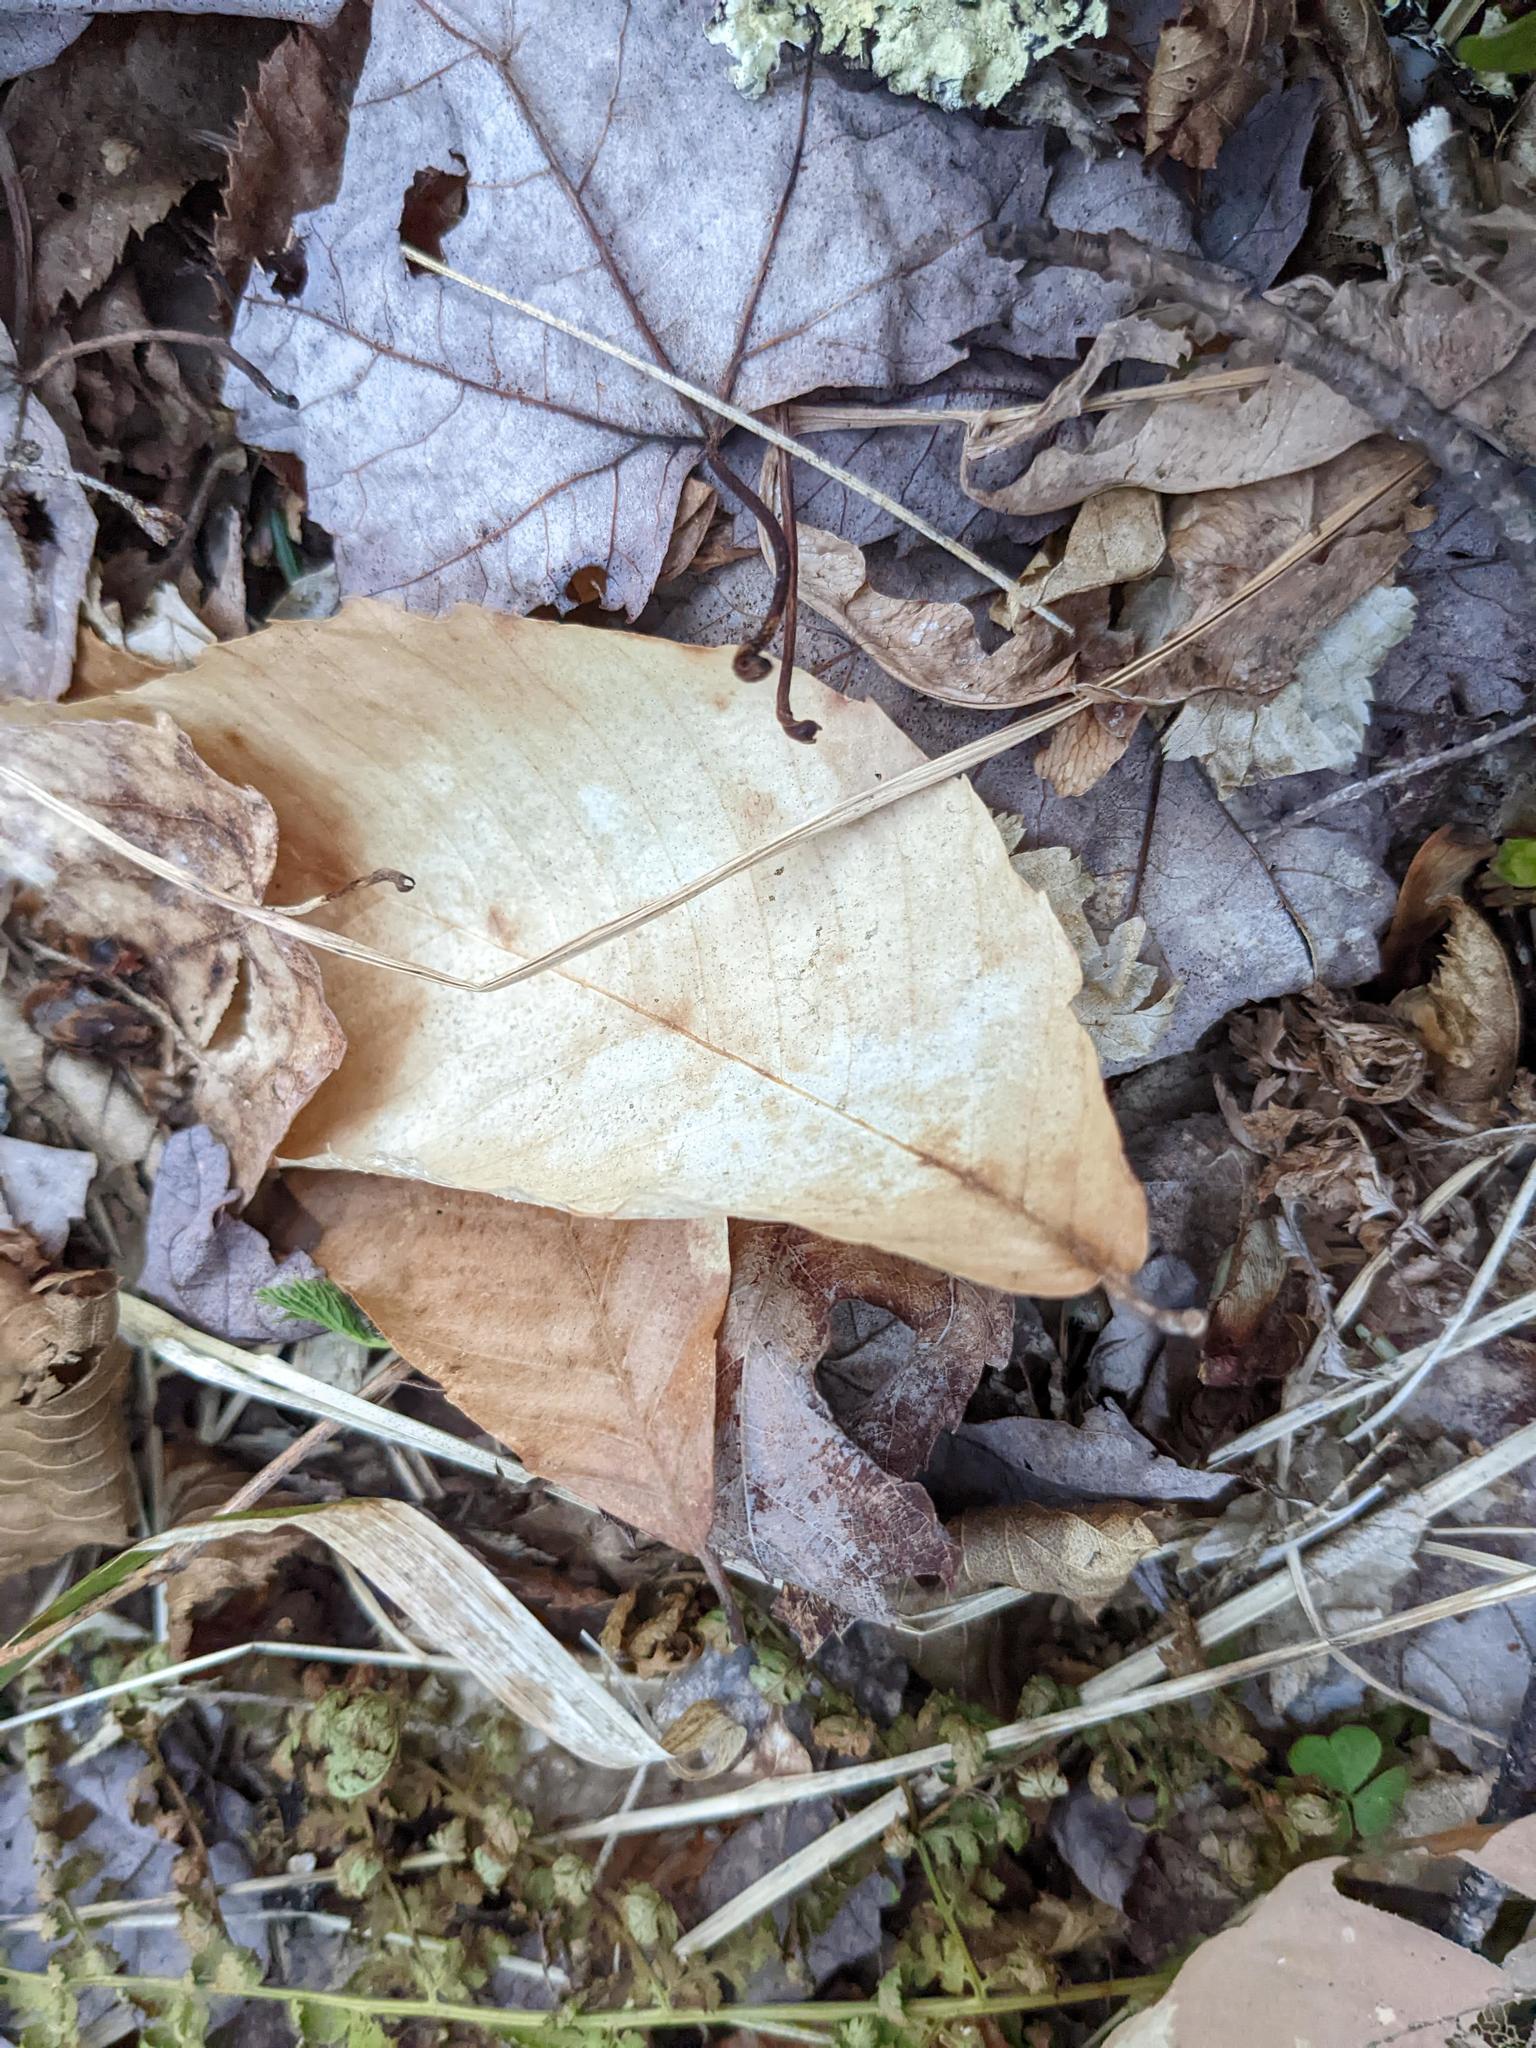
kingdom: Plantae
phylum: Tracheophyta
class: Magnoliopsida
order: Fagales
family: Fagaceae
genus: Fagus
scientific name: Fagus grandifolia
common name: American beech
